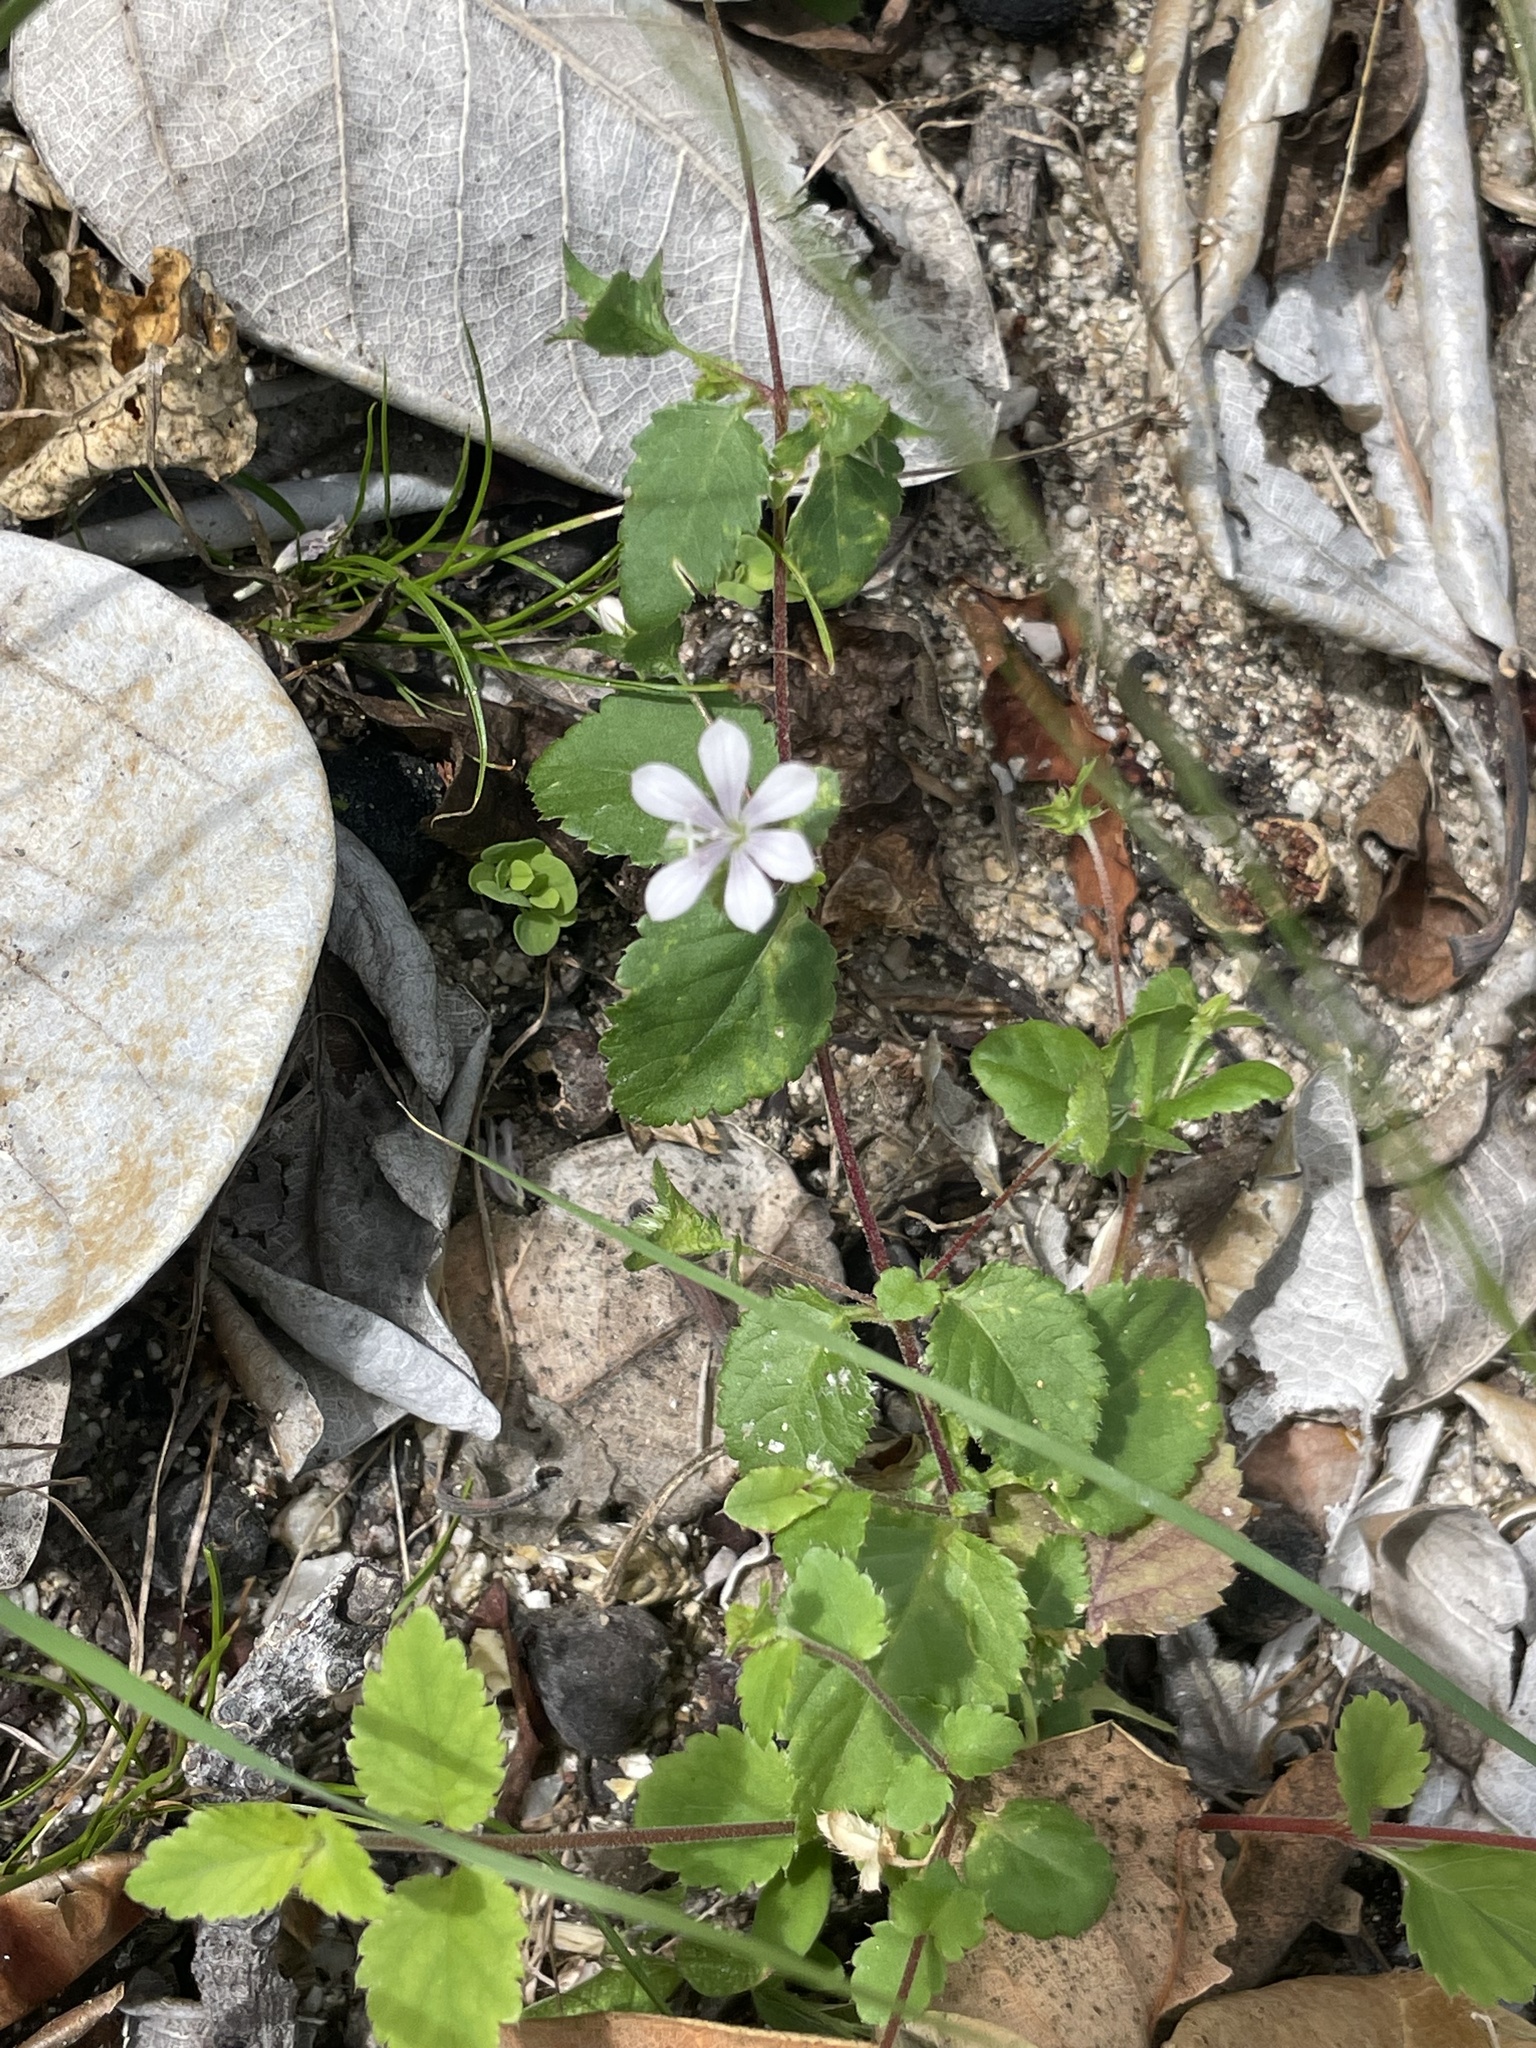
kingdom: Plantae
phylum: Tracheophyta
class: Magnoliopsida
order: Ericales
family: Polemoniaceae
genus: Loeselia
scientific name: Loeselia ciliata
